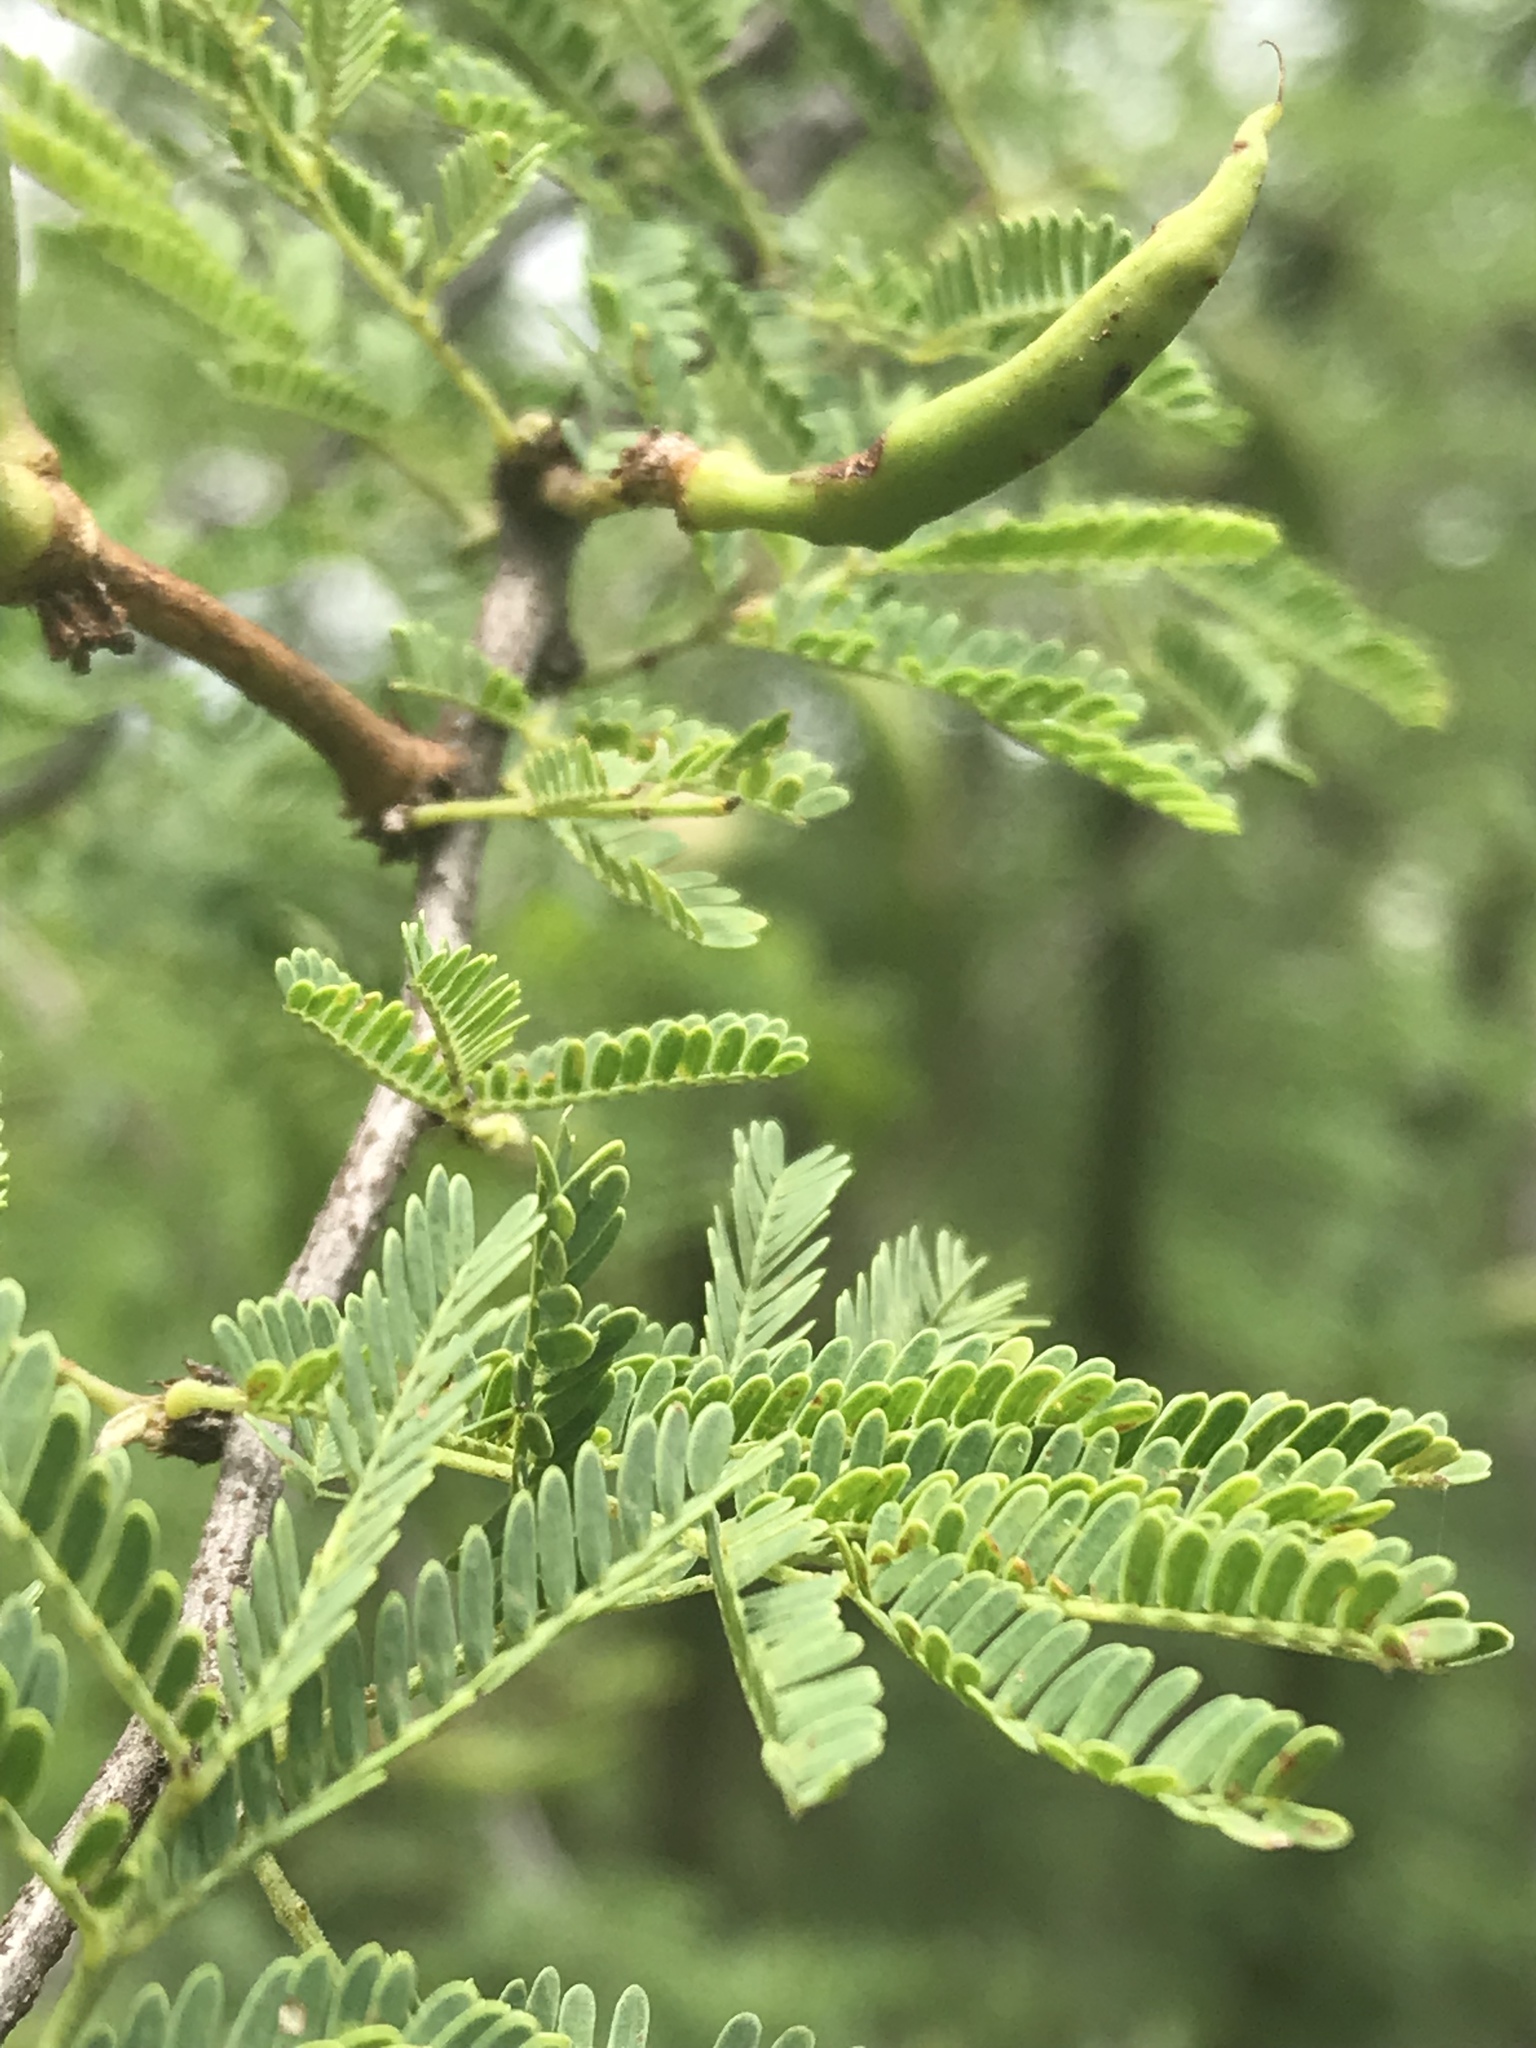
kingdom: Plantae
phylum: Tracheophyta
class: Magnoliopsida
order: Fabales
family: Fabaceae
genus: Vachellia
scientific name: Vachellia farnesiana
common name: Sweet acacia
